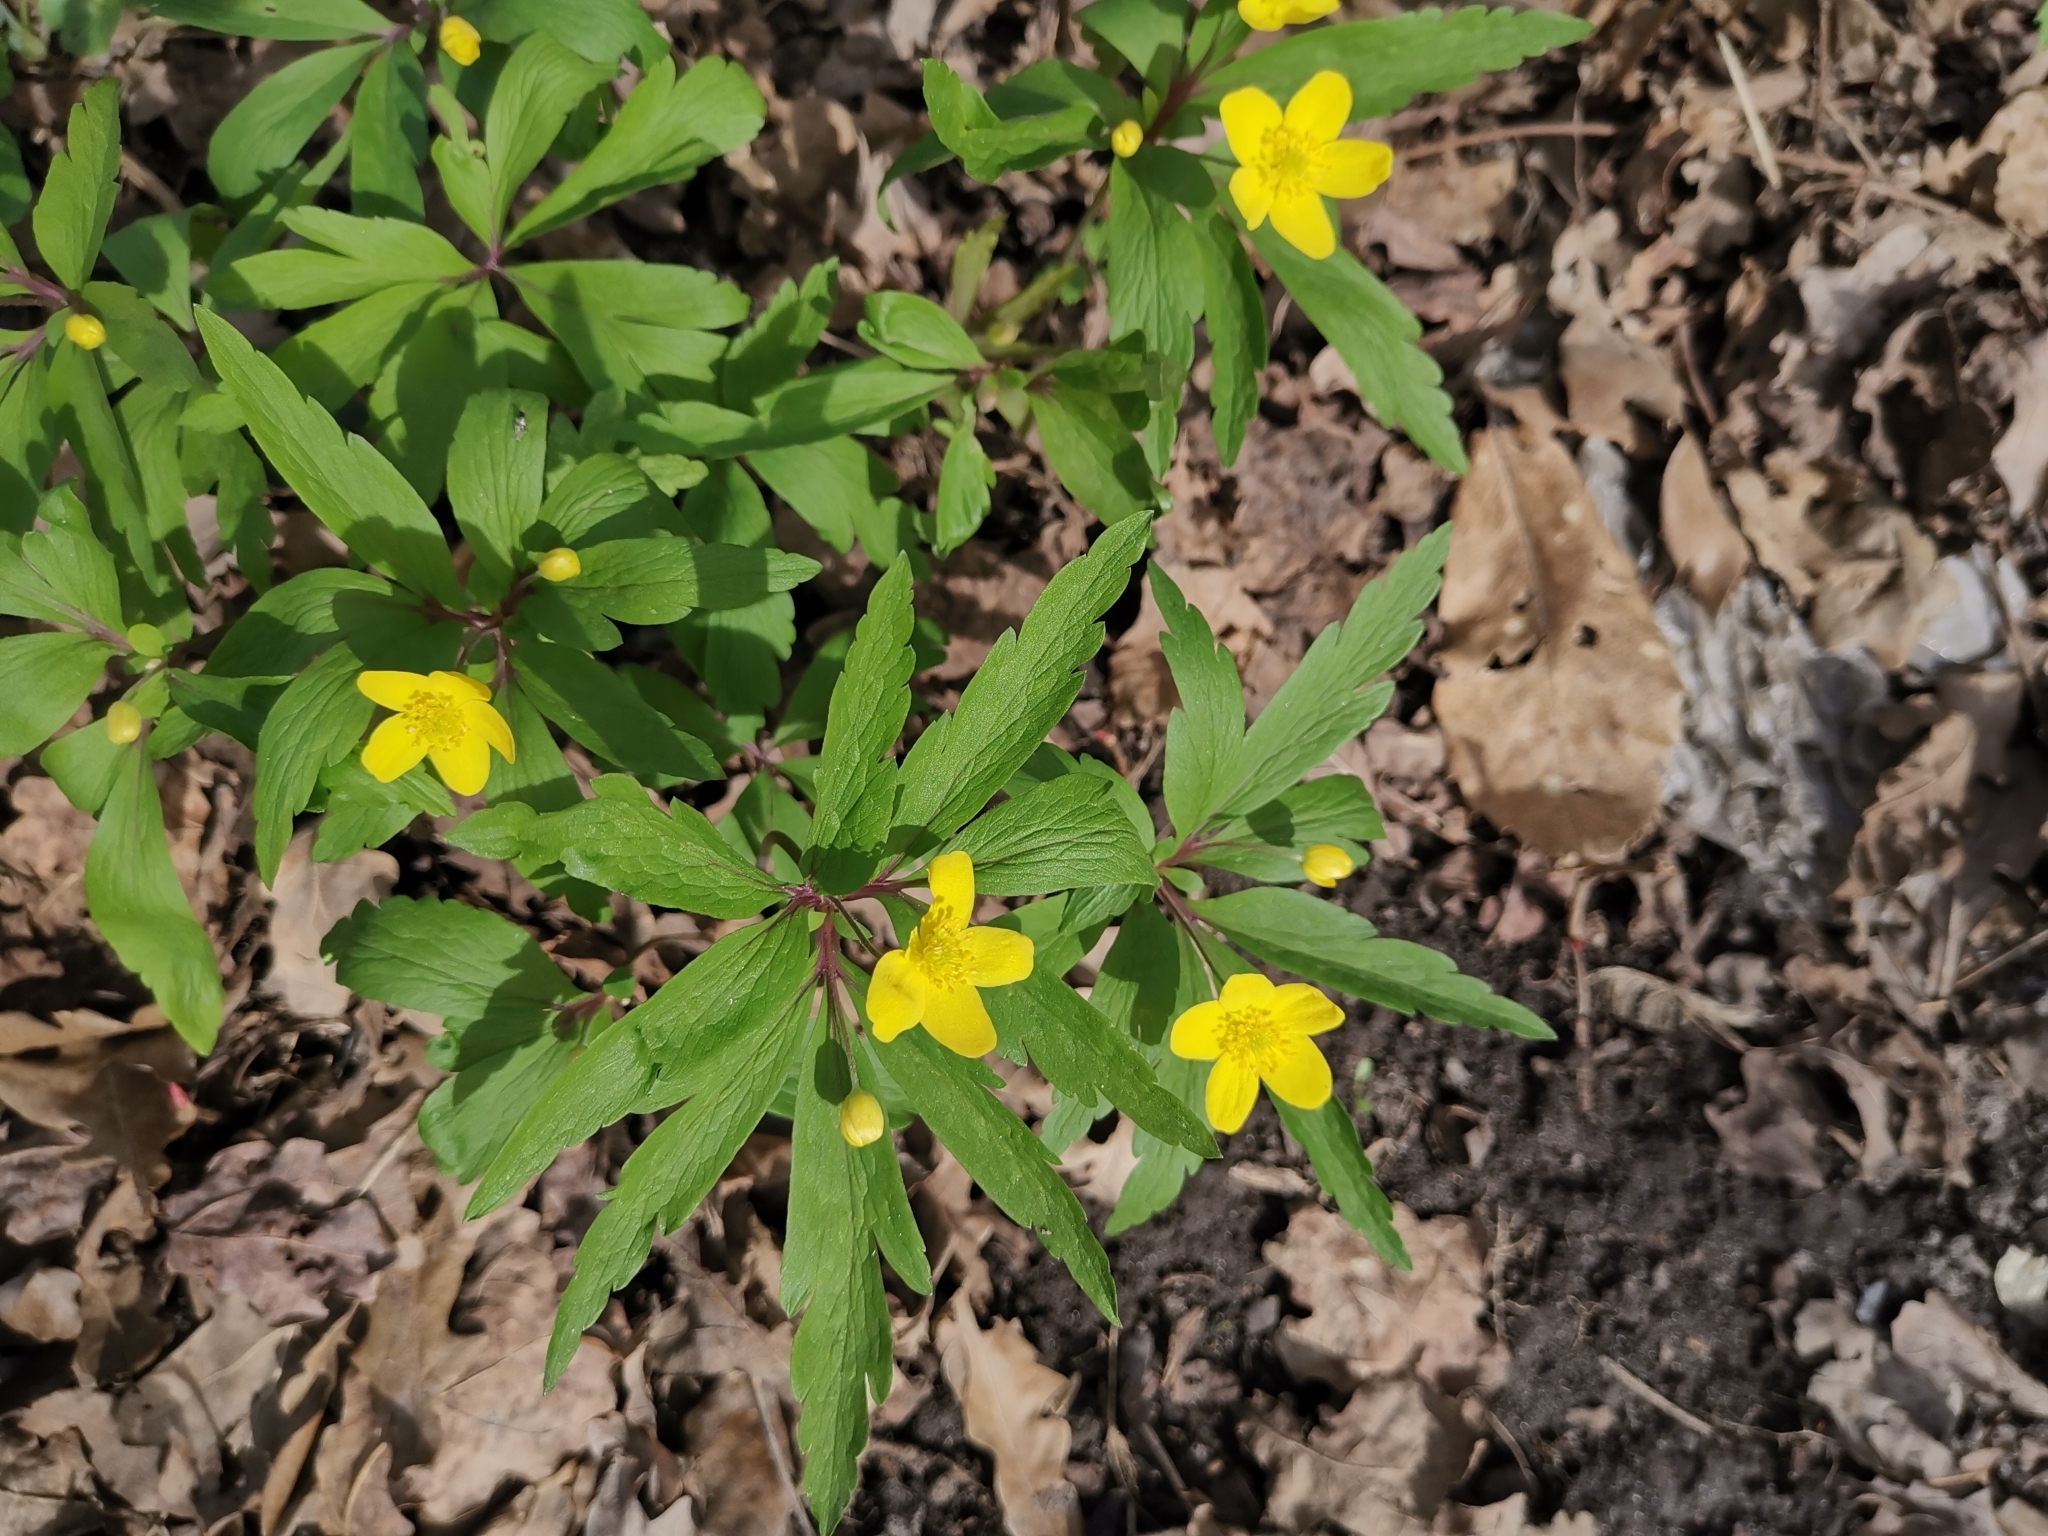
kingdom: Plantae
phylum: Tracheophyta
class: Magnoliopsida
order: Ranunculales
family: Ranunculaceae
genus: Anemone
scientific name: Anemone ranunculoides
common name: Yellow anemone
